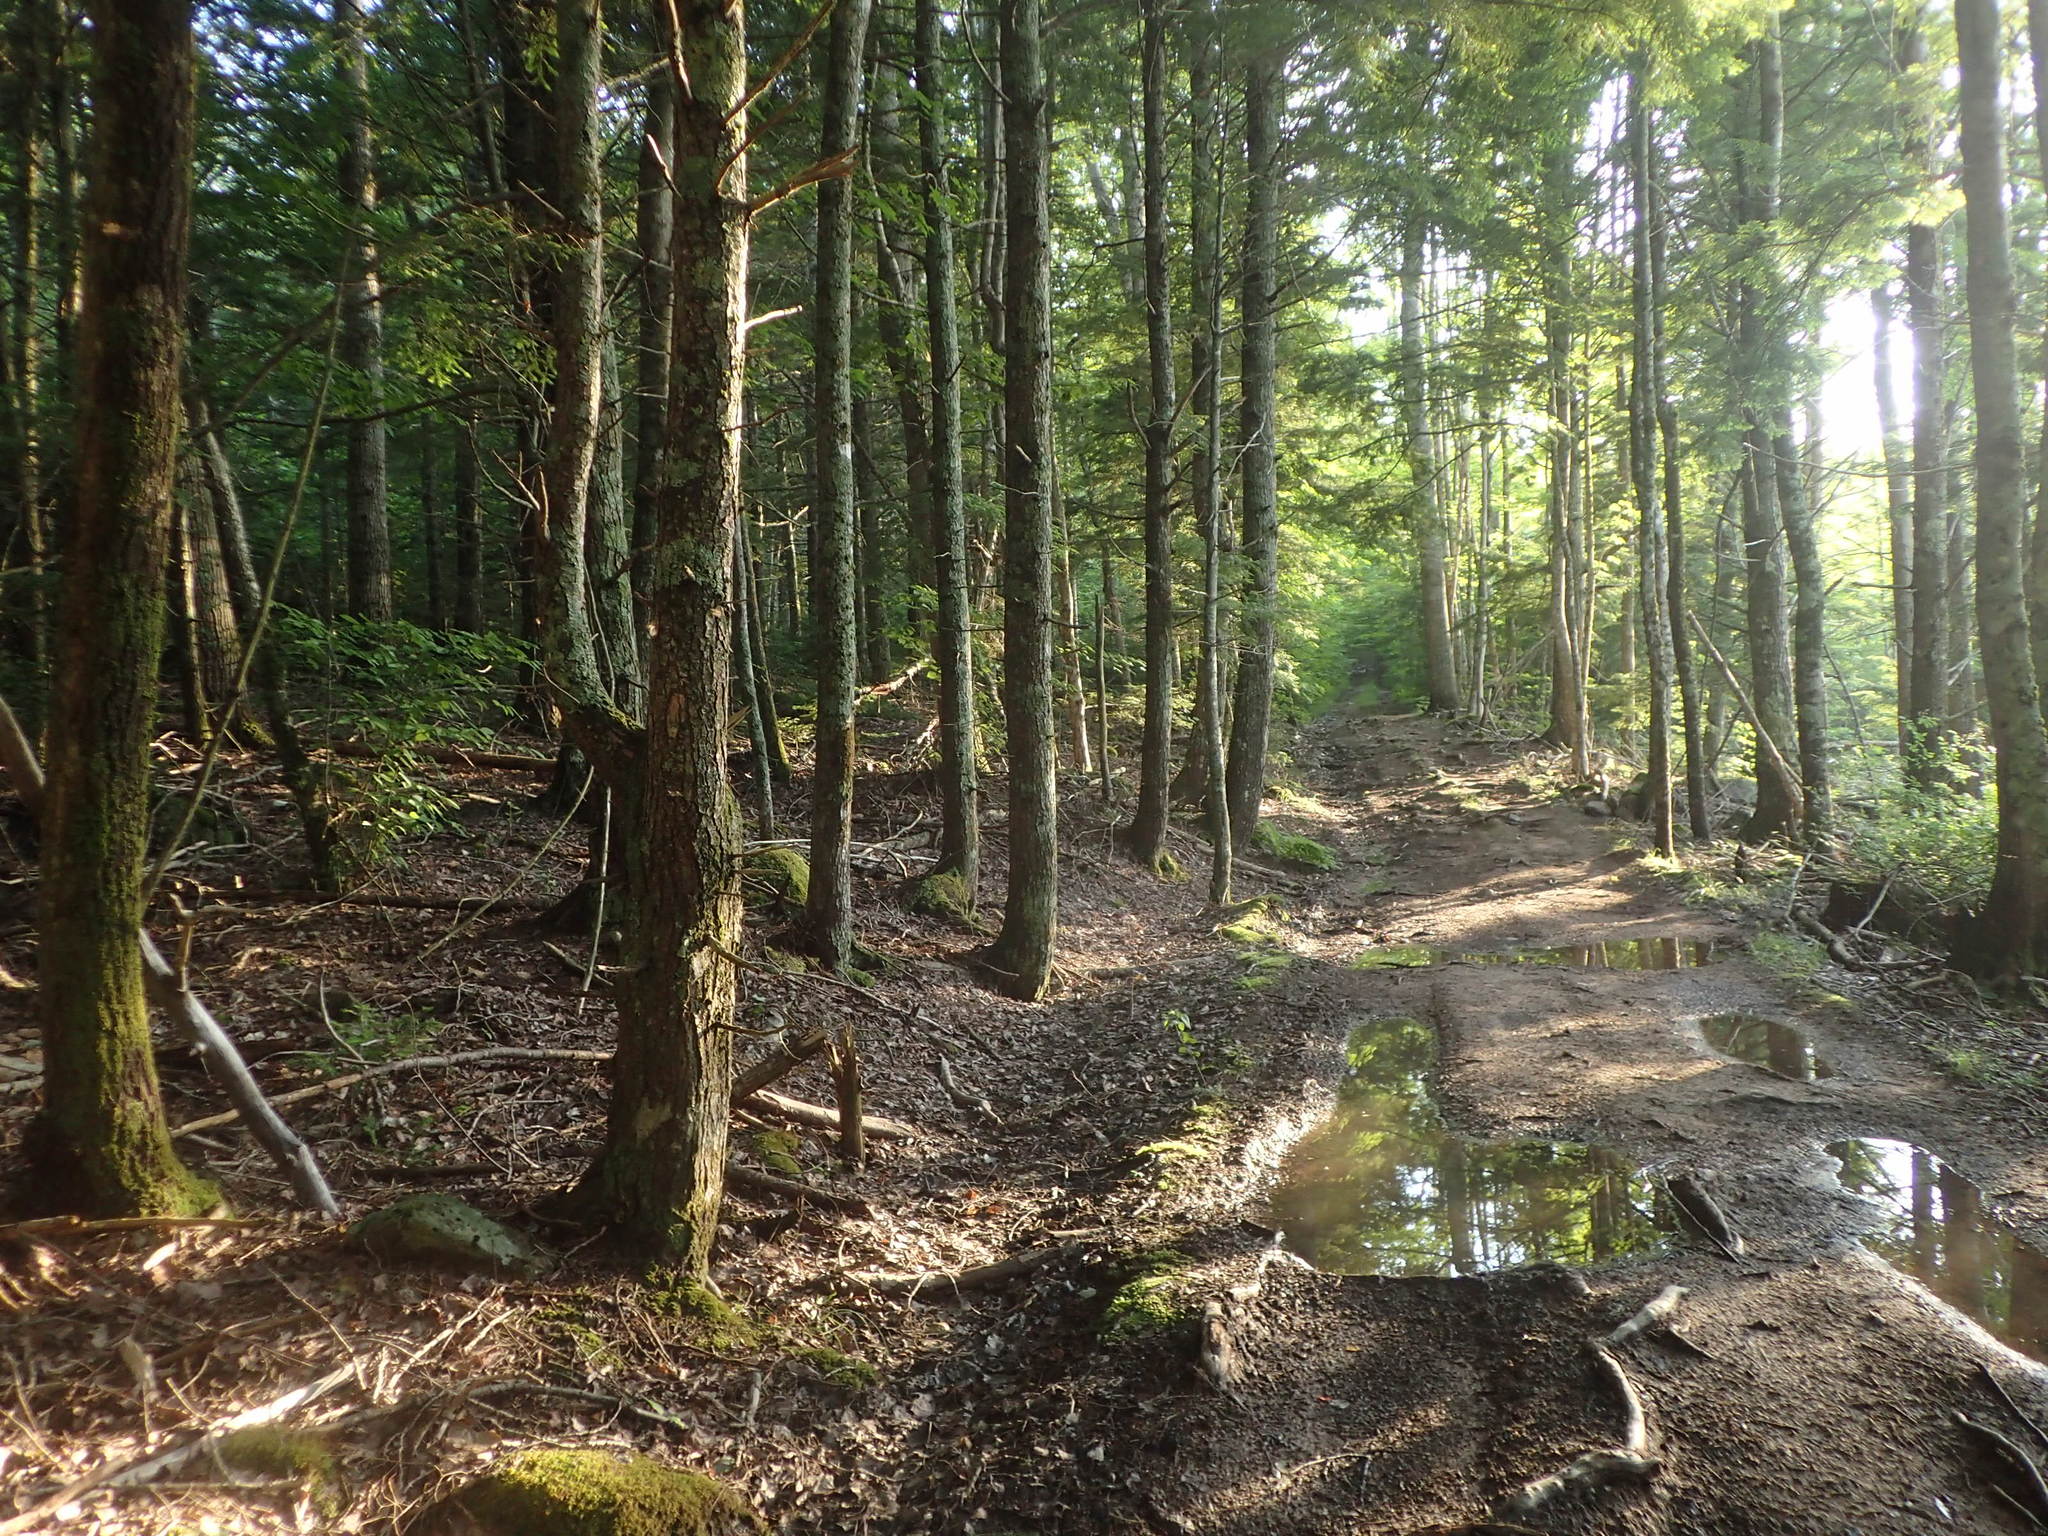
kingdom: Plantae
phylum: Tracheophyta
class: Pinopsida
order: Pinales
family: Pinaceae
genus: Tsuga
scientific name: Tsuga canadensis
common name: Eastern hemlock
